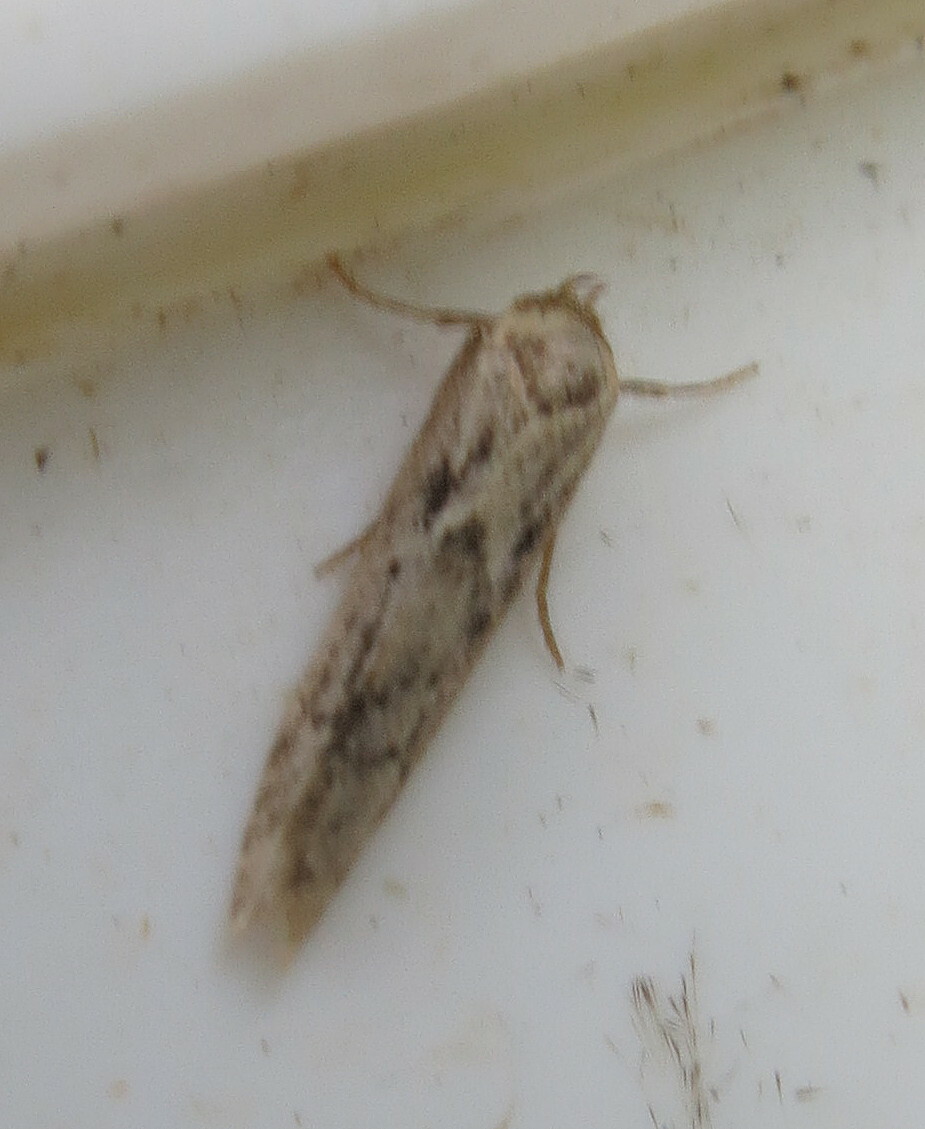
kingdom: Animalia
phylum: Arthropoda
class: Insecta
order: Lepidoptera
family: Blastobasidae
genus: Blastobasis
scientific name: Blastobasis adustella
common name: Dingy dowd
